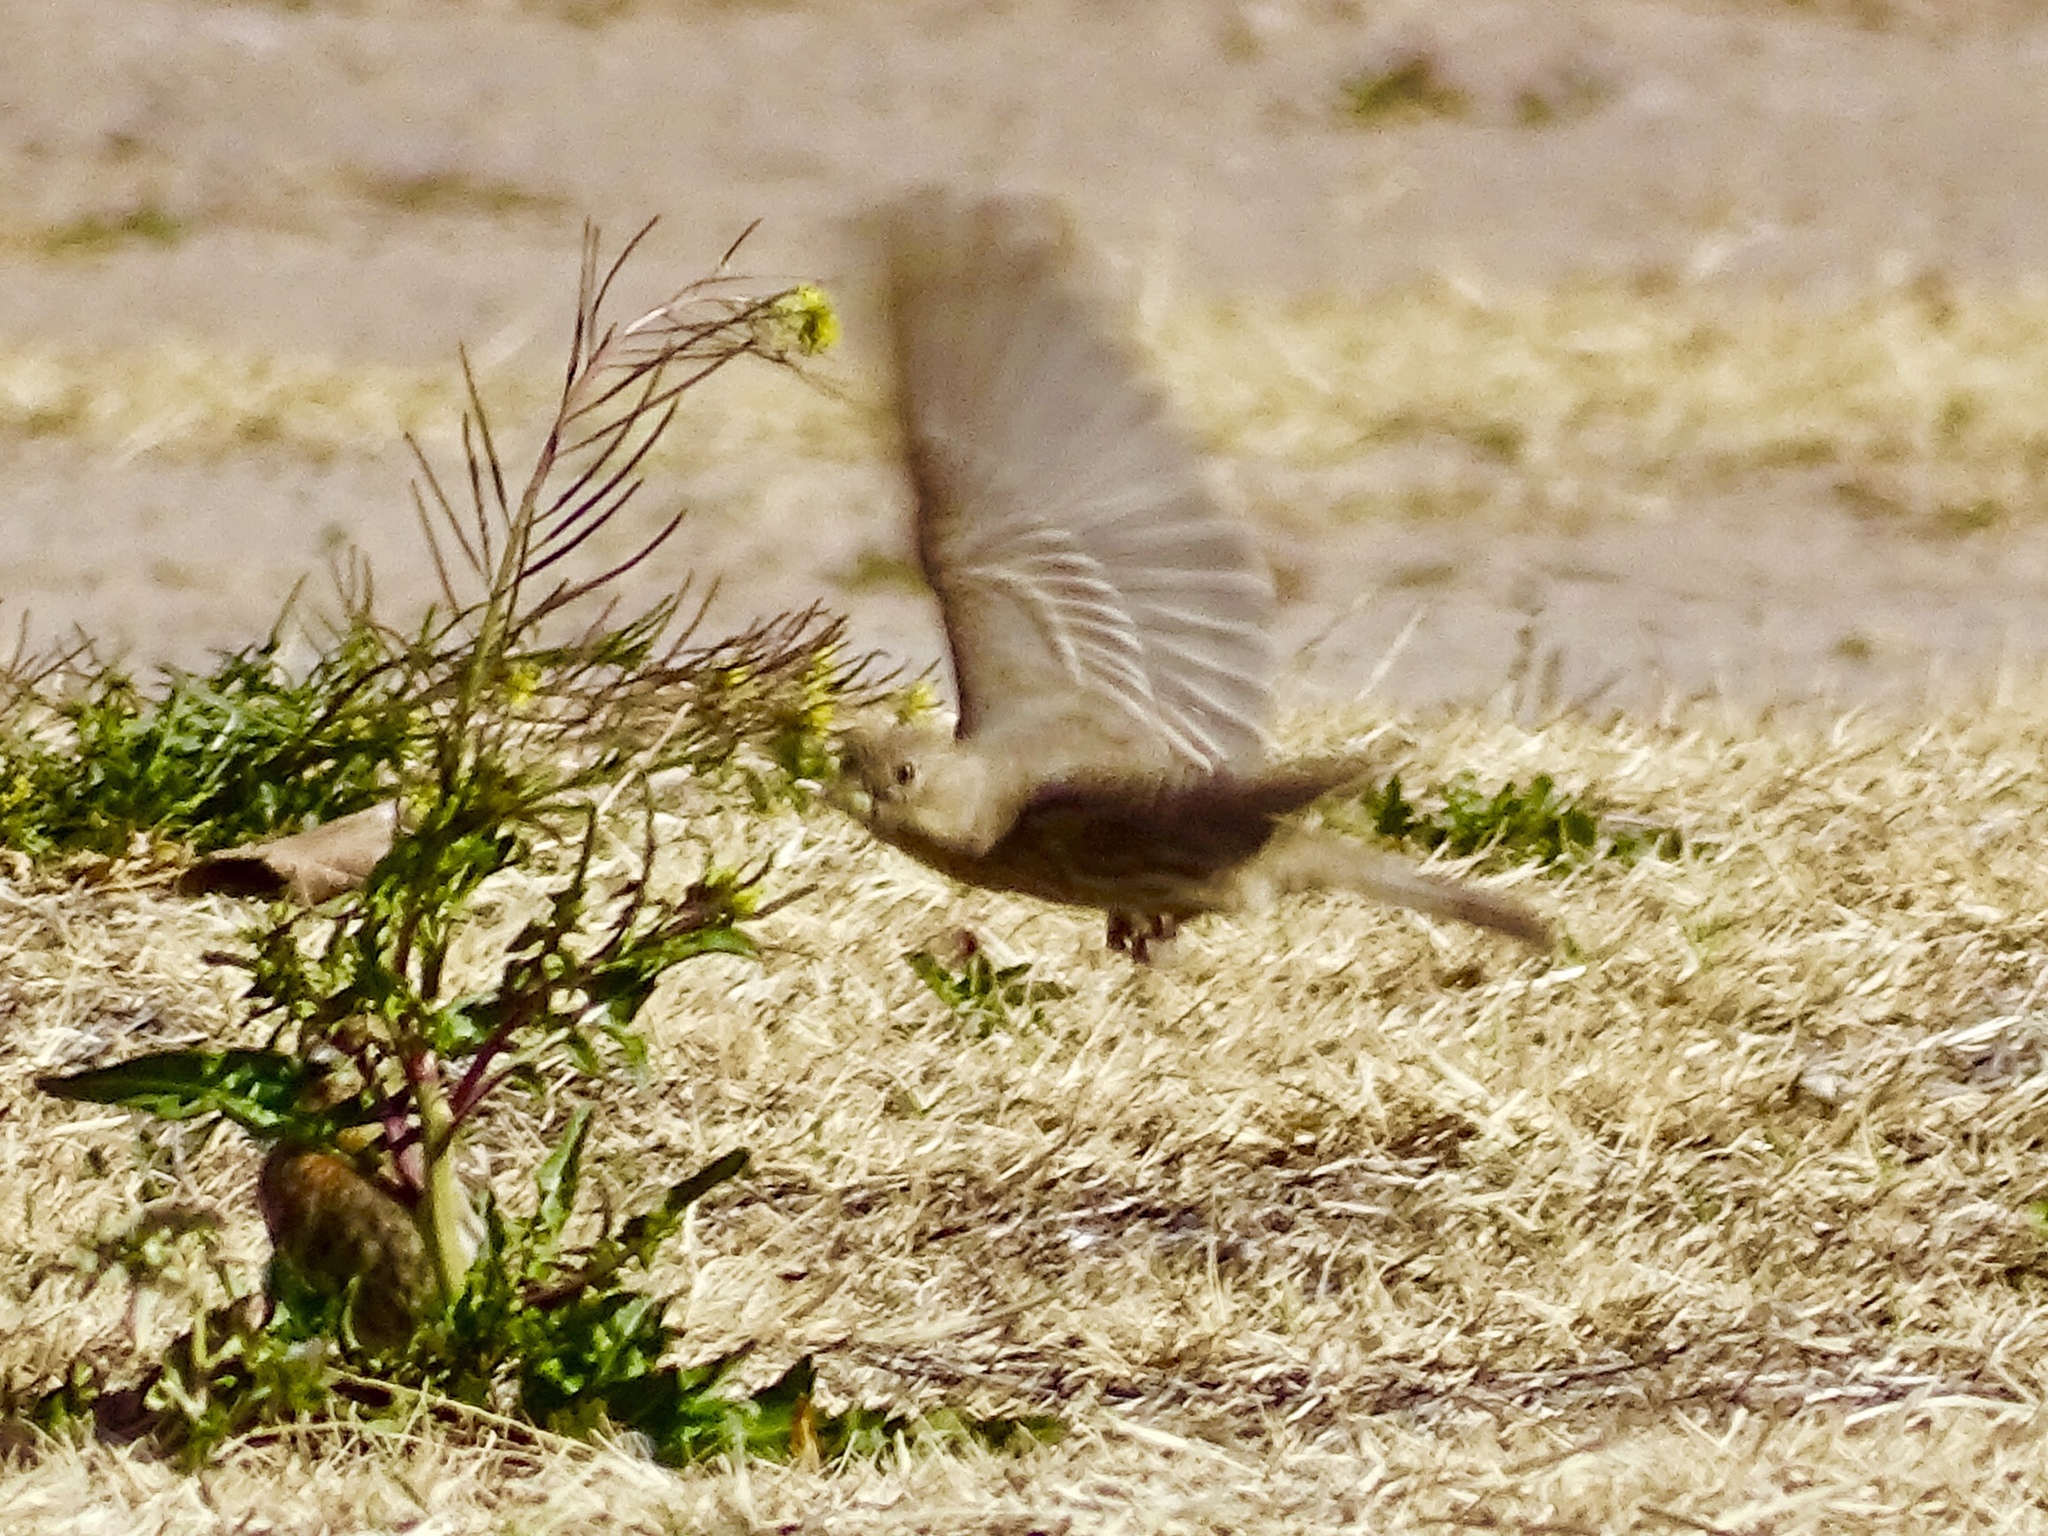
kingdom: Animalia
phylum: Chordata
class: Aves
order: Passeriformes
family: Fringillidae
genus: Haemorhous
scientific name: Haemorhous mexicanus
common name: House finch
